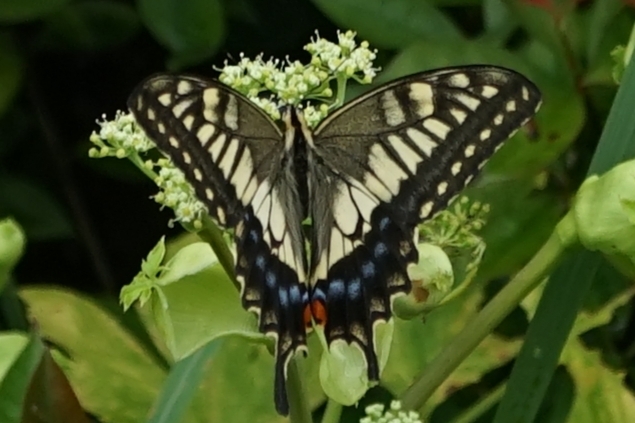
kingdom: Animalia
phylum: Arthropoda
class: Insecta
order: Lepidoptera
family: Papilionidae
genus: Papilio
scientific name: Papilio machaon
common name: Swallowtail
